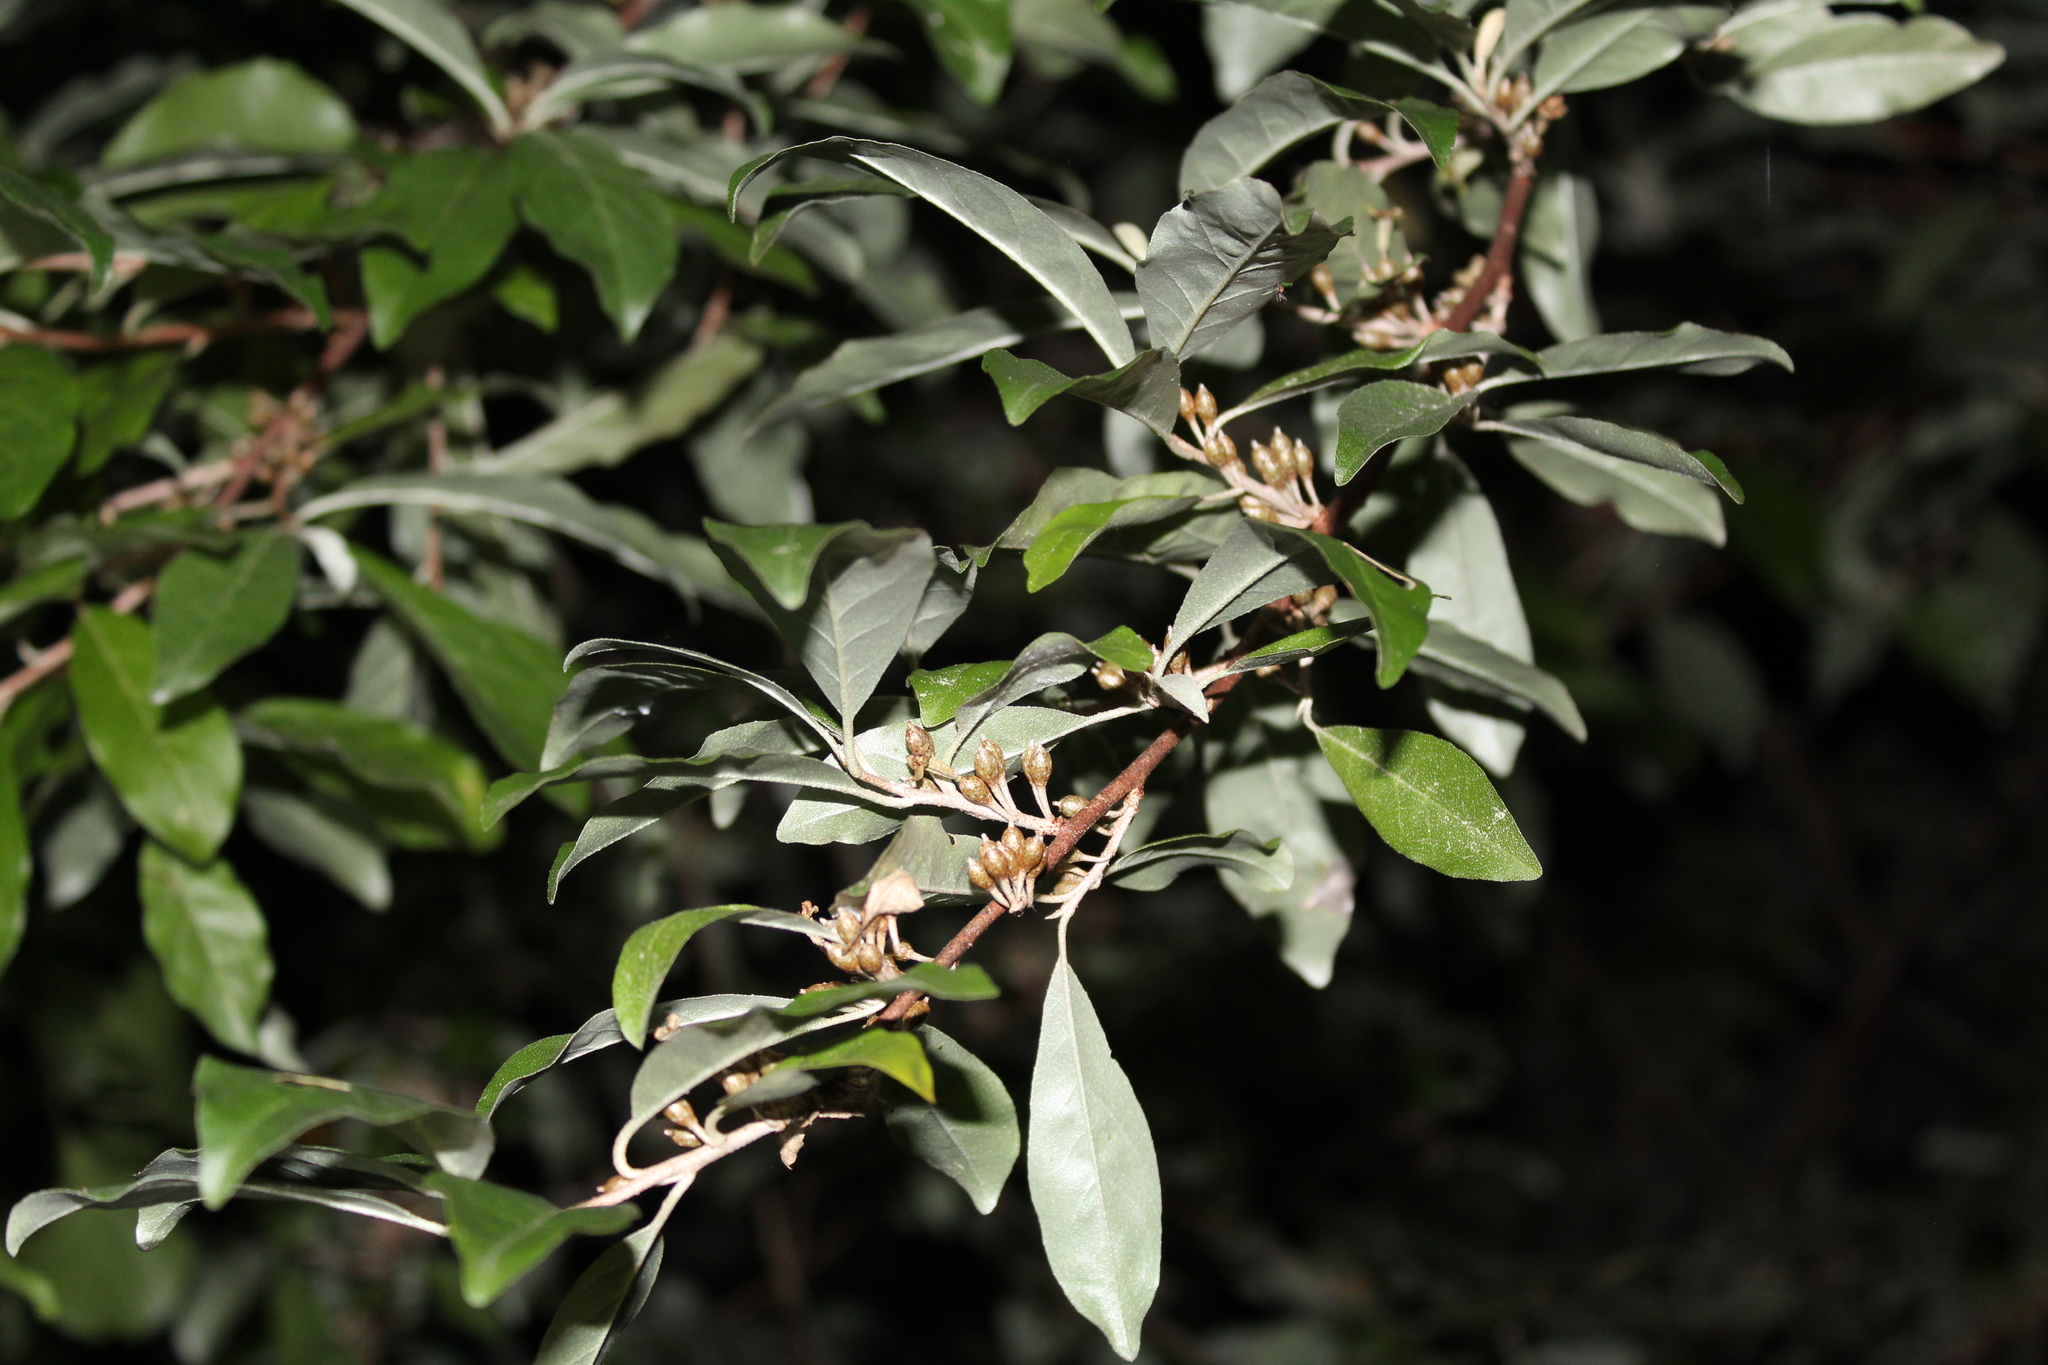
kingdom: Plantae
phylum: Tracheophyta
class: Magnoliopsida
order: Rosales
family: Elaeagnaceae
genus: Elaeagnus
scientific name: Elaeagnus umbellata
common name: Autumn olive
